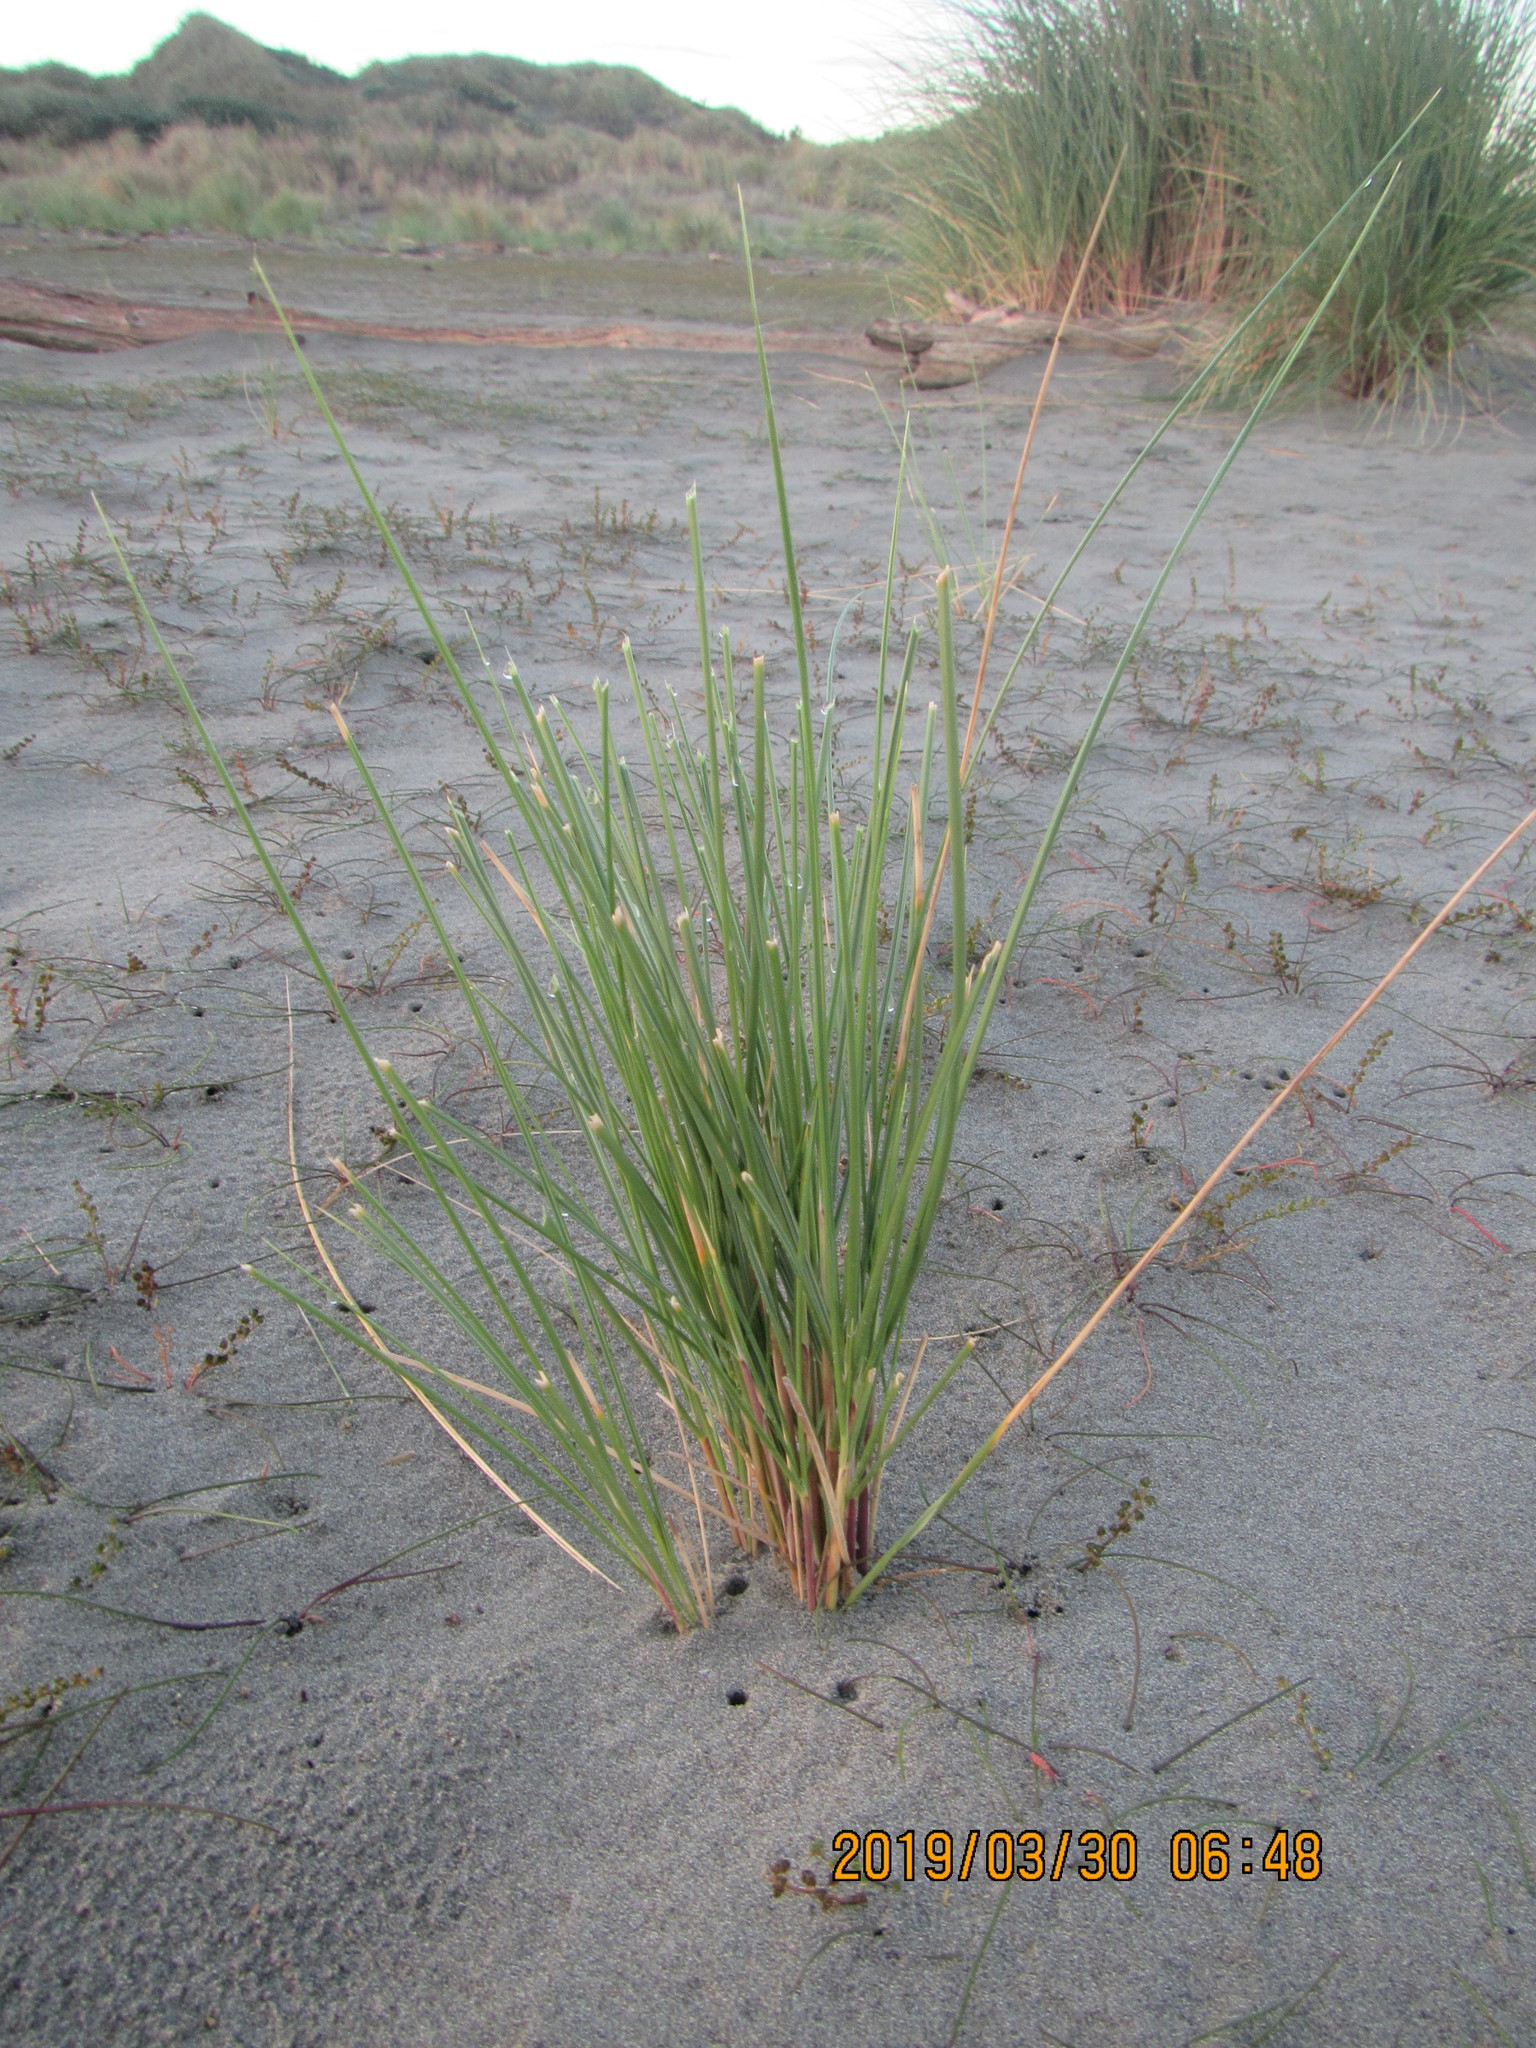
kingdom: Plantae
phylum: Tracheophyta
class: Liliopsida
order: Poales
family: Poaceae
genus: Calamagrostis
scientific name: Calamagrostis arenaria
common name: European beachgrass
